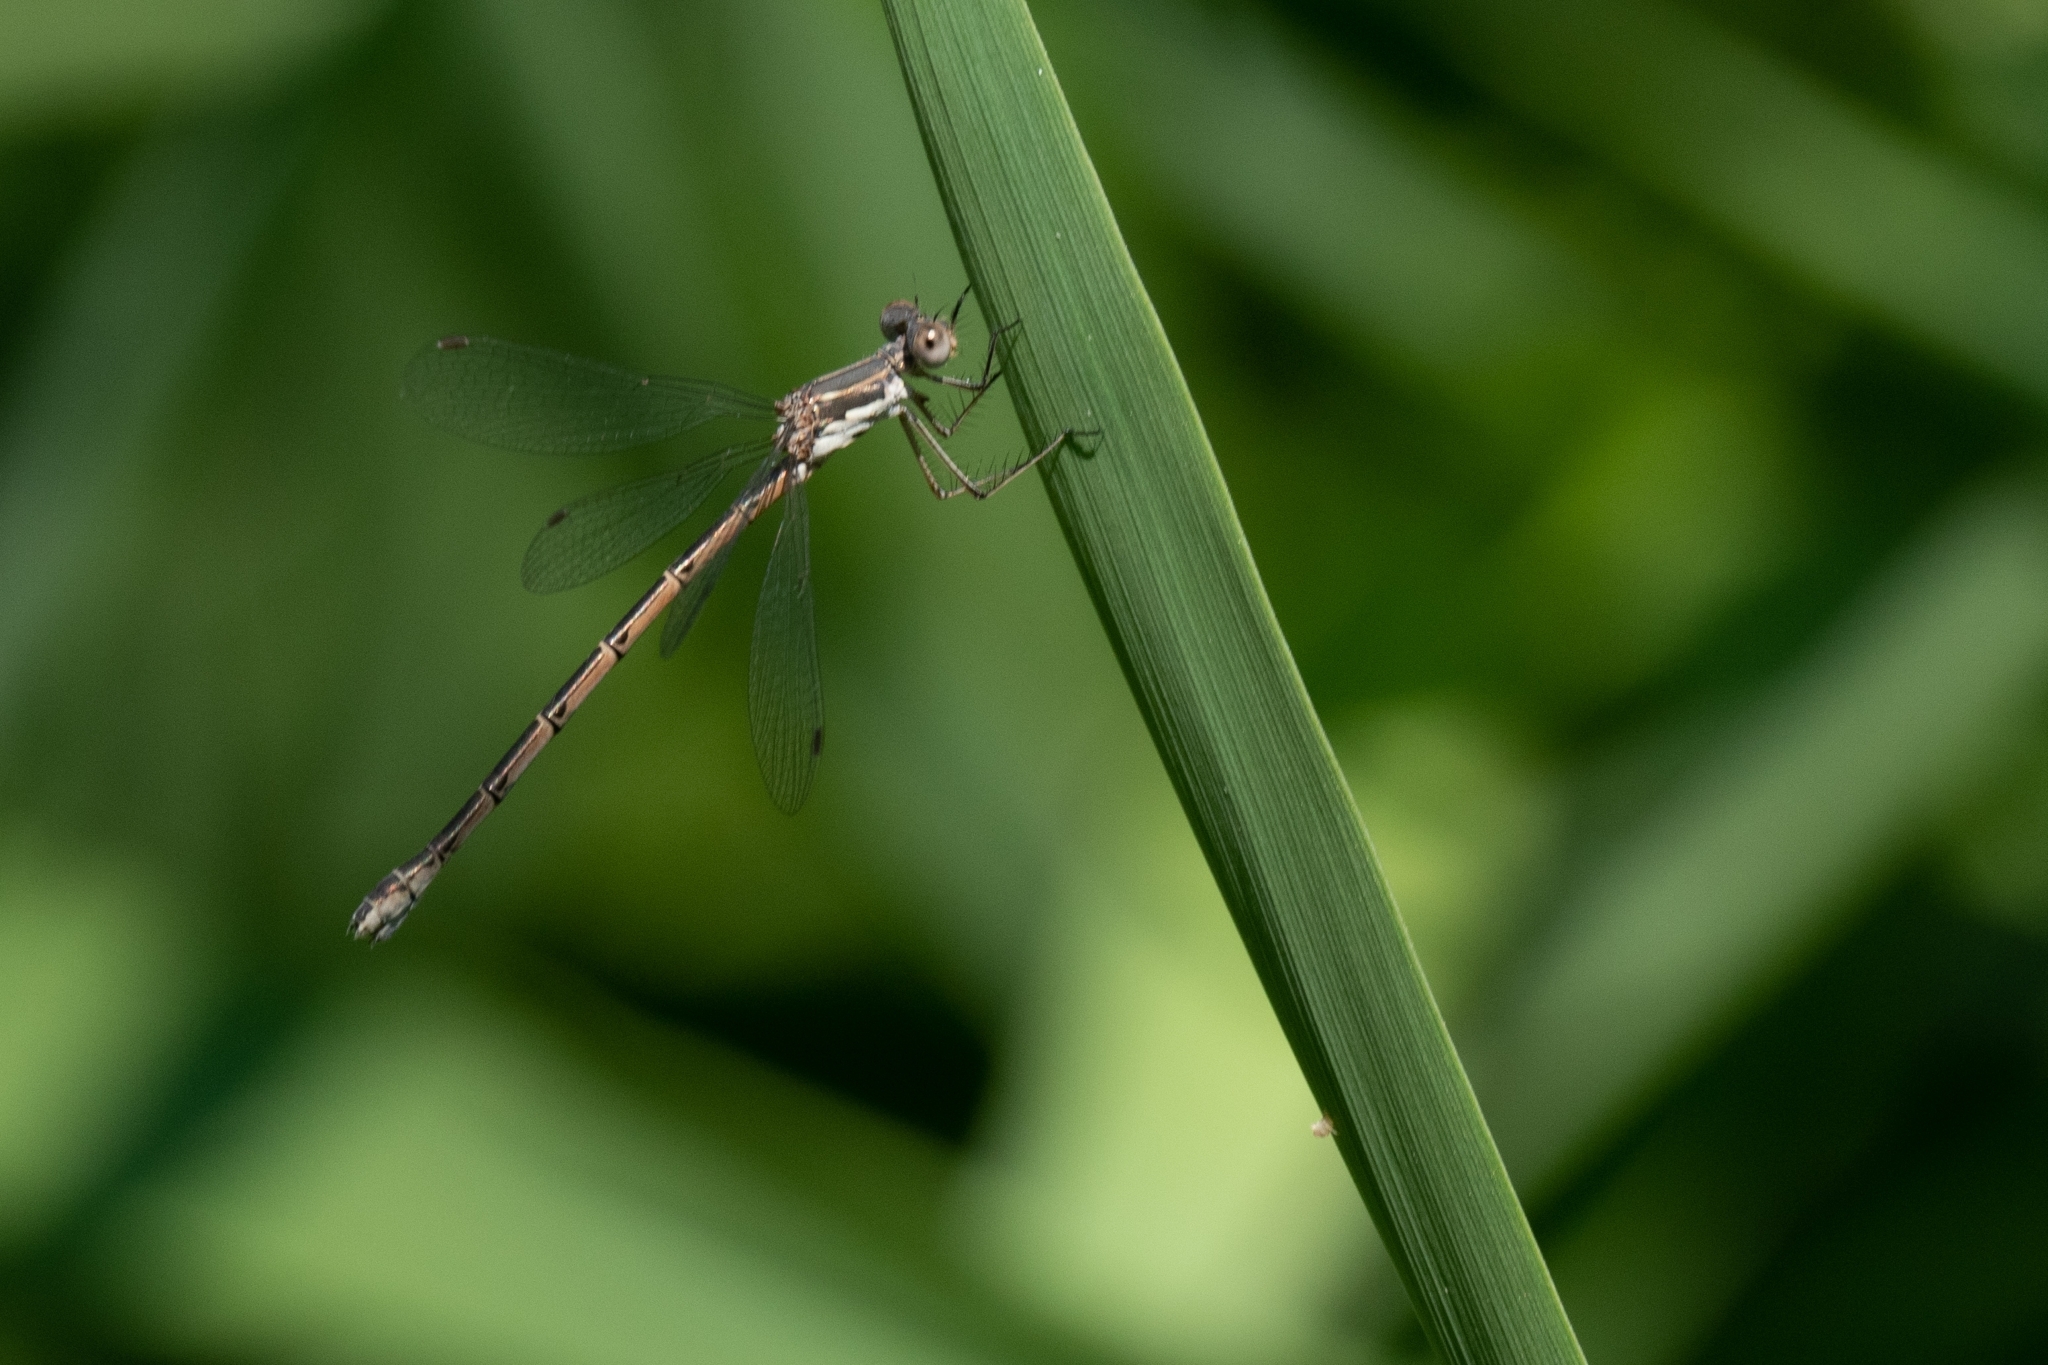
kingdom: Animalia
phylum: Arthropoda
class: Insecta
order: Odonata
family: Lestidae
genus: Lestes
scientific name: Lestes congener
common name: Spotted spreadwing
